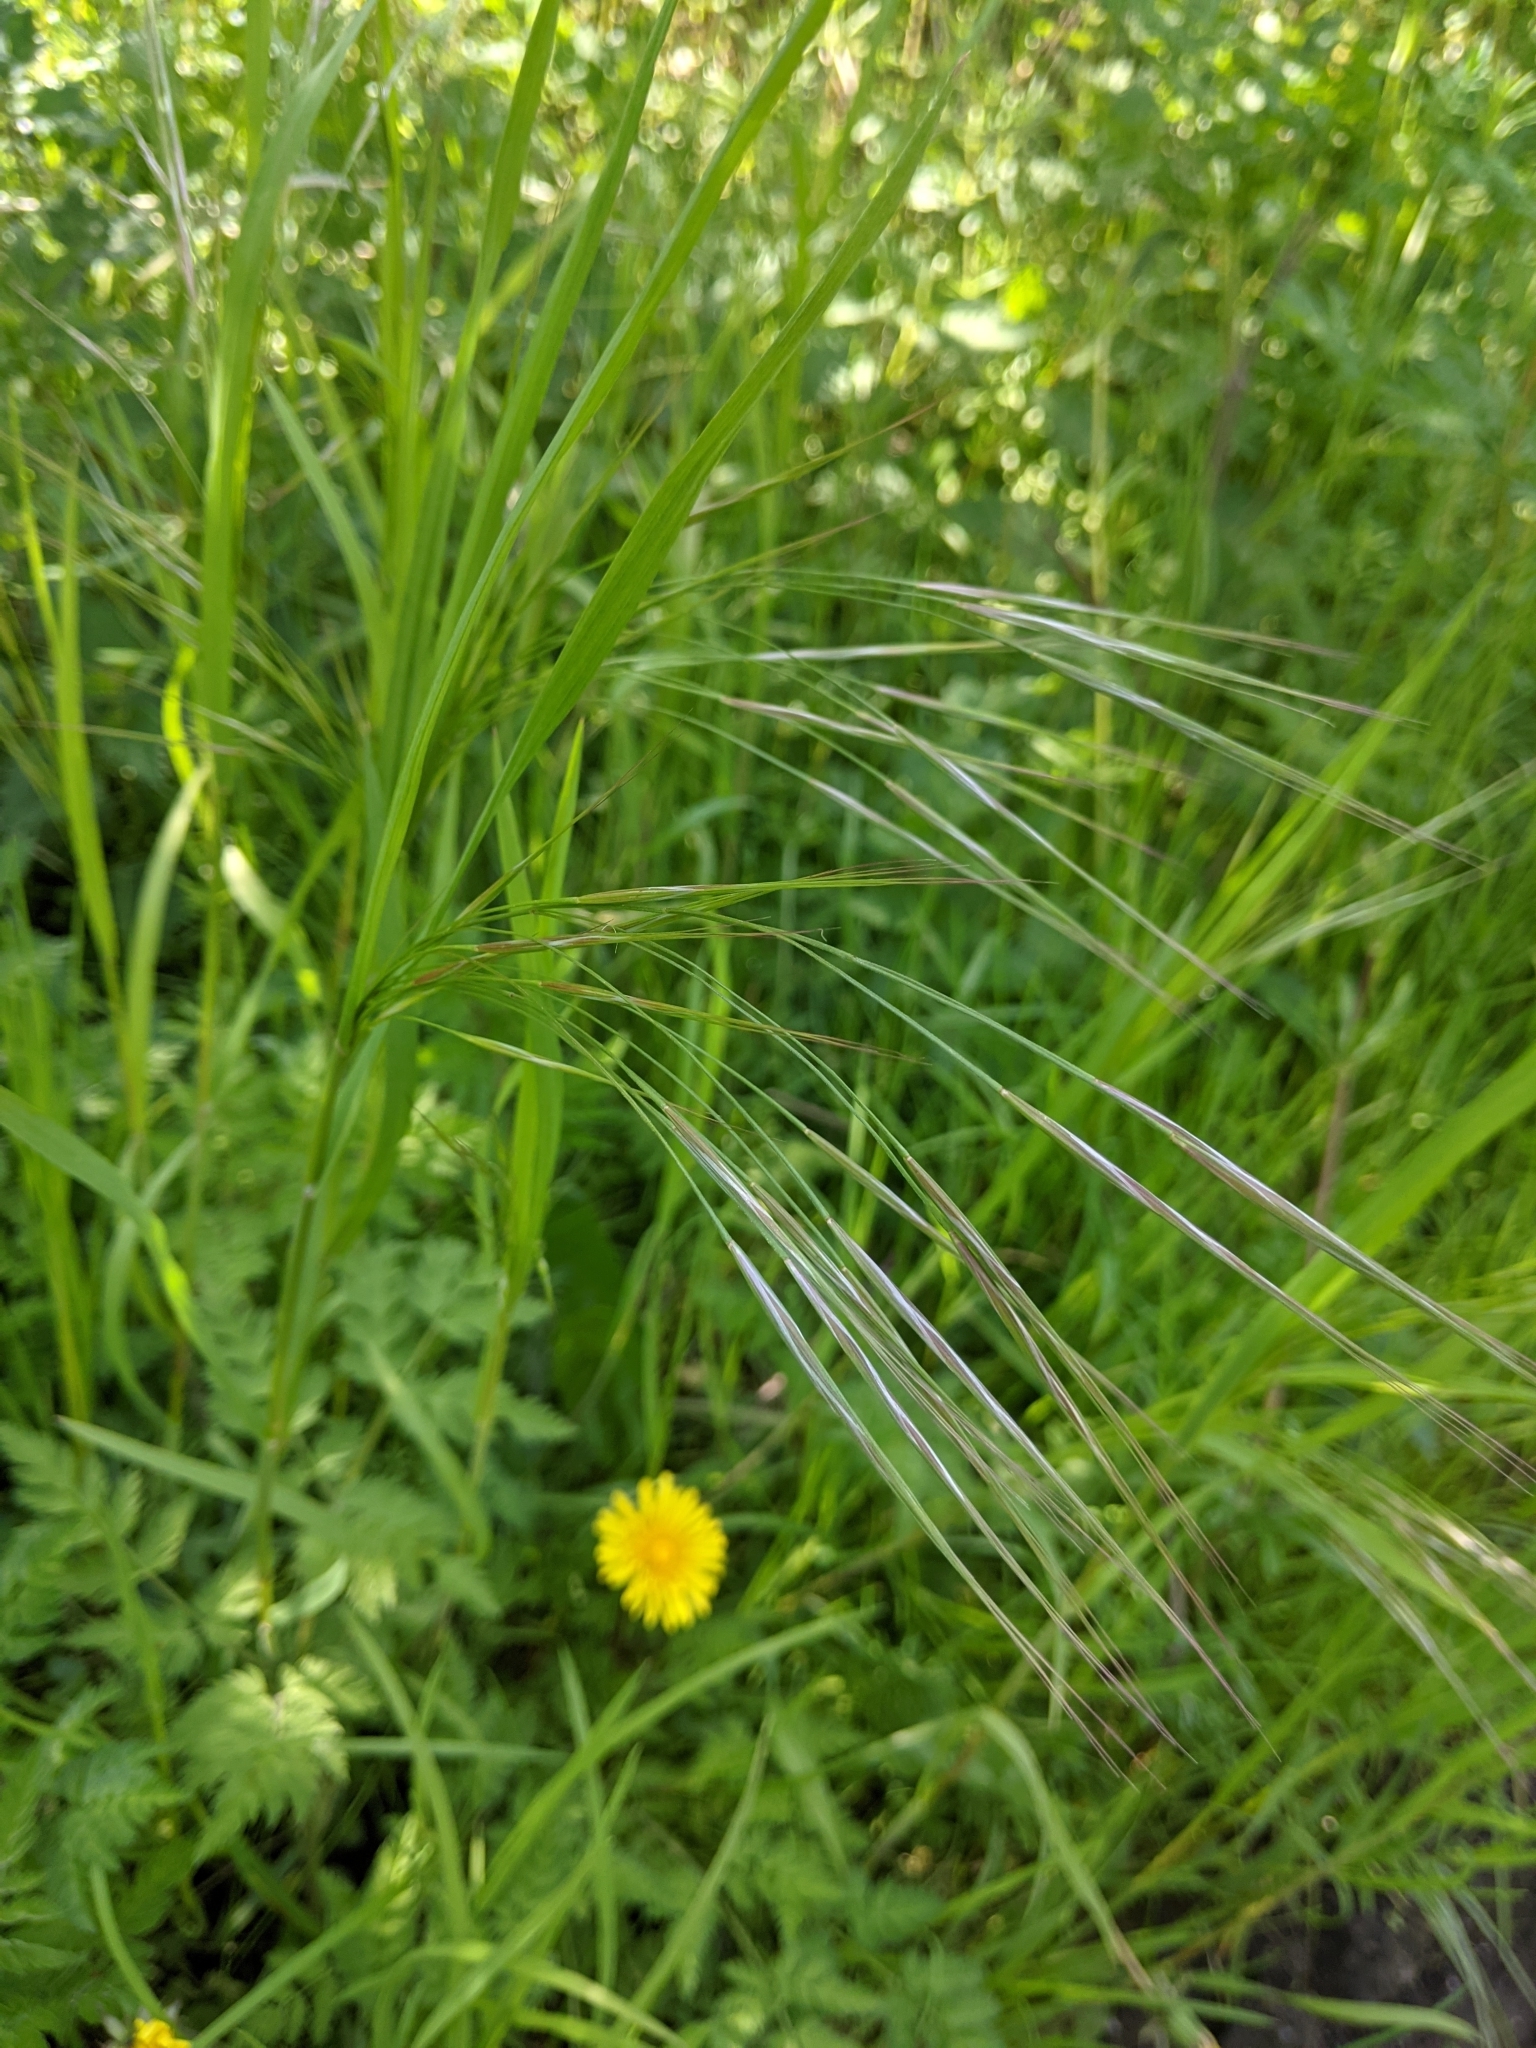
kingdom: Plantae
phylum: Tracheophyta
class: Liliopsida
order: Poales
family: Poaceae
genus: Bromus
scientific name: Bromus sterilis
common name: Poverty brome
